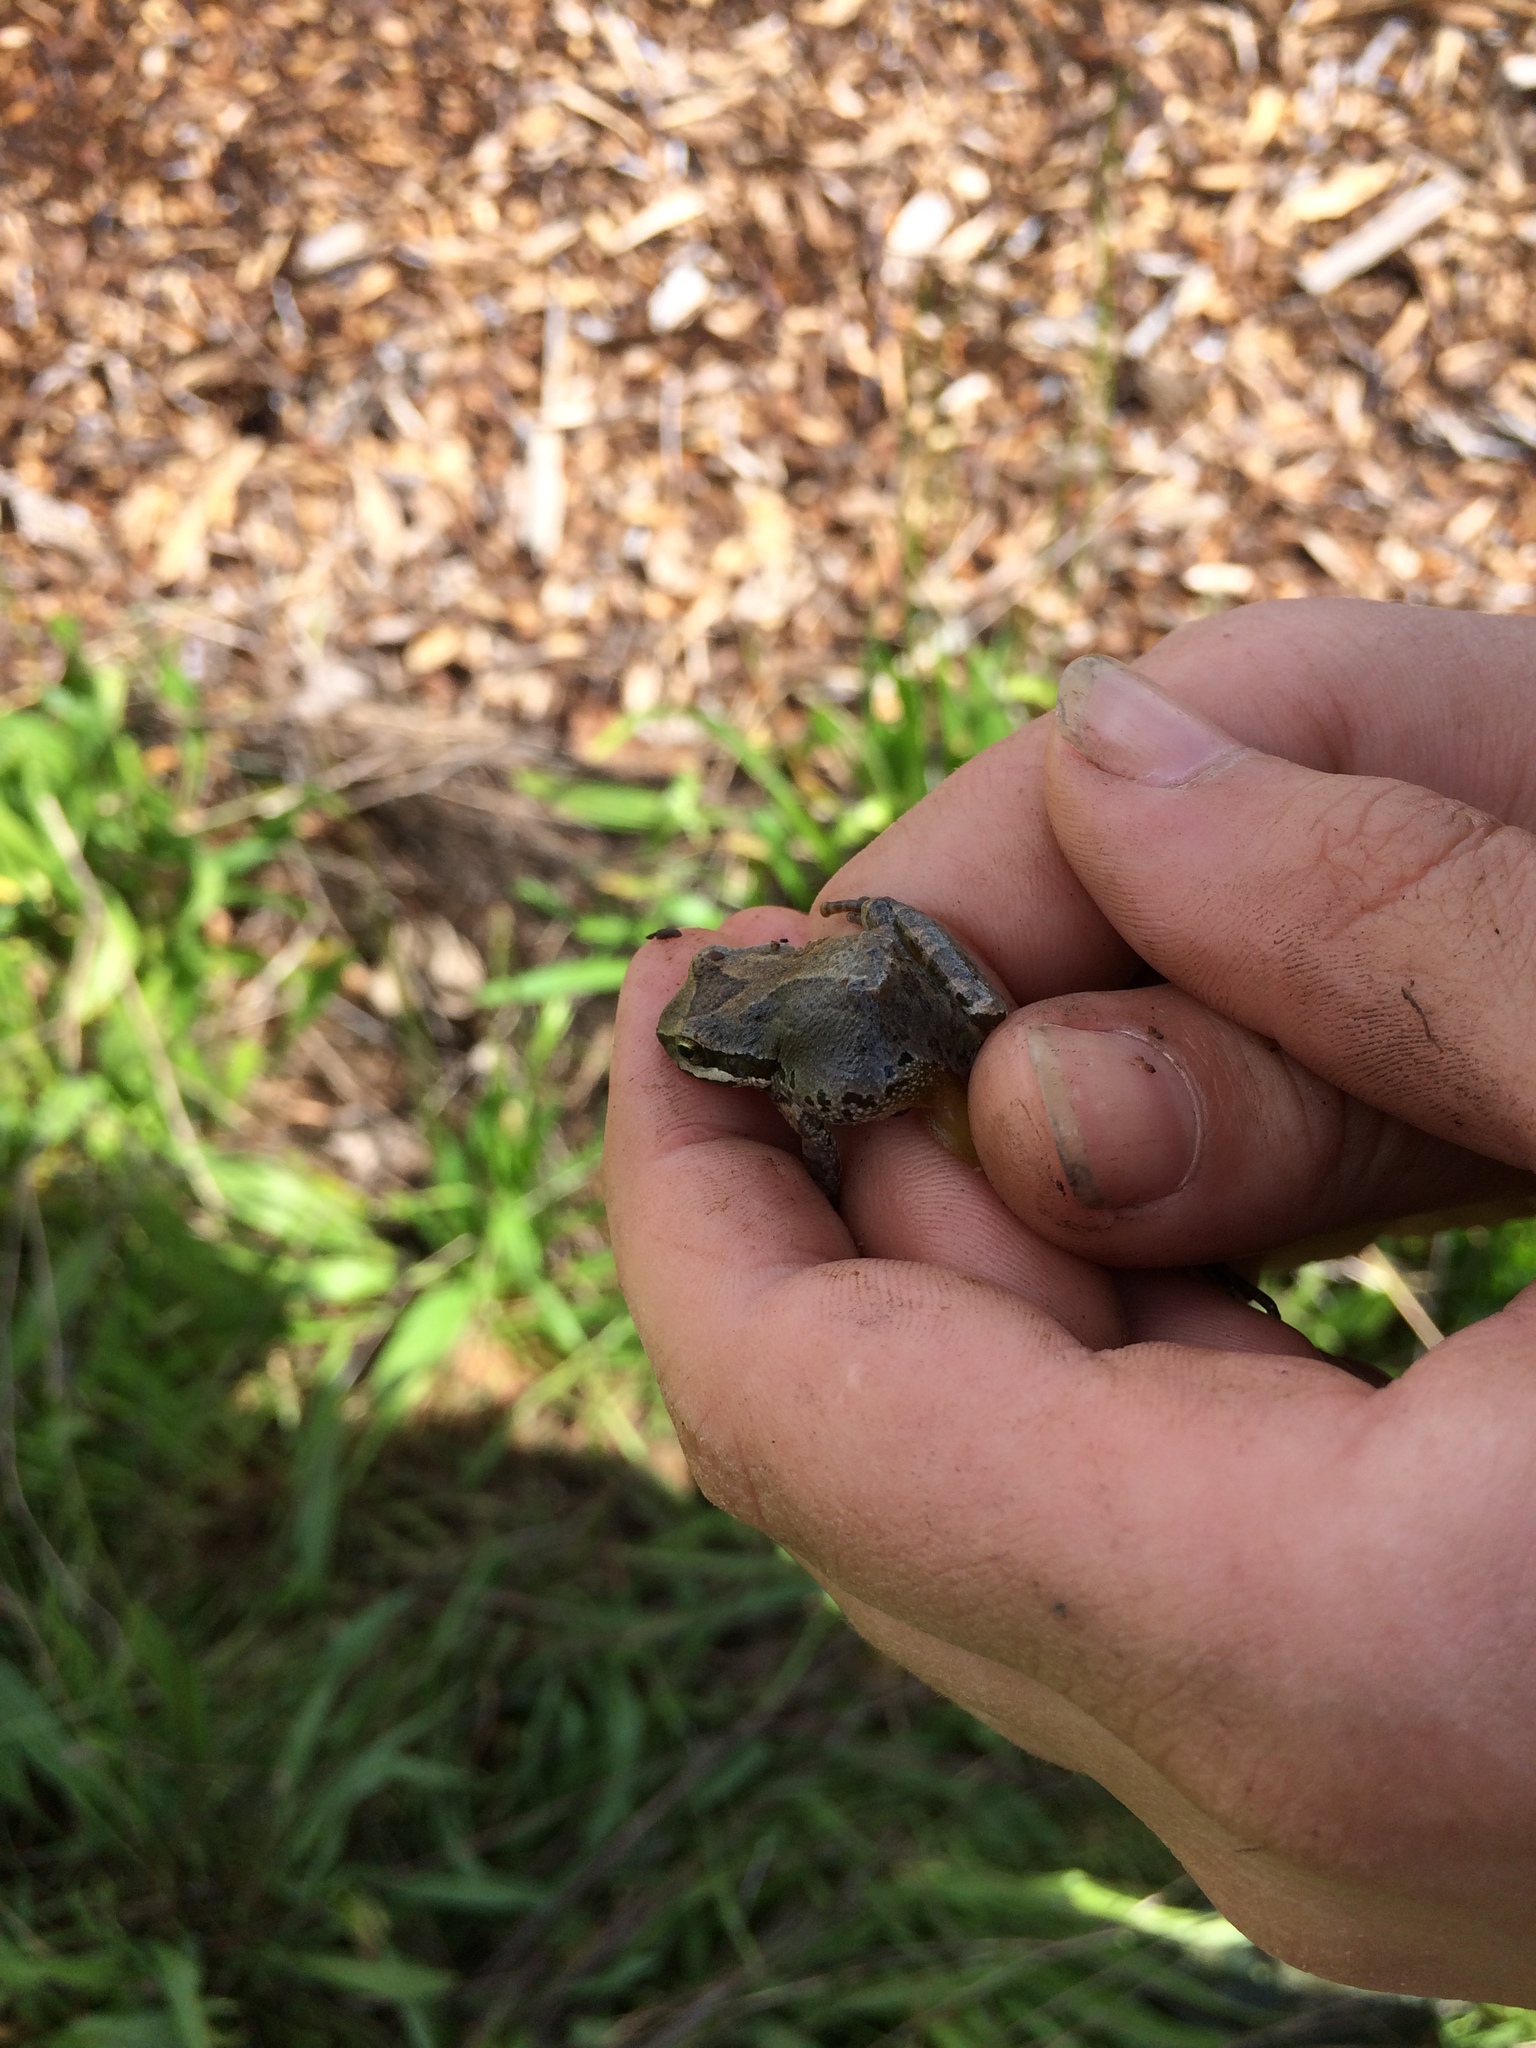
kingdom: Animalia
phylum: Chordata
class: Amphibia
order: Anura
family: Hylidae
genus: Pseudacris
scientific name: Pseudacris regilla
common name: Pacific chorus frog
